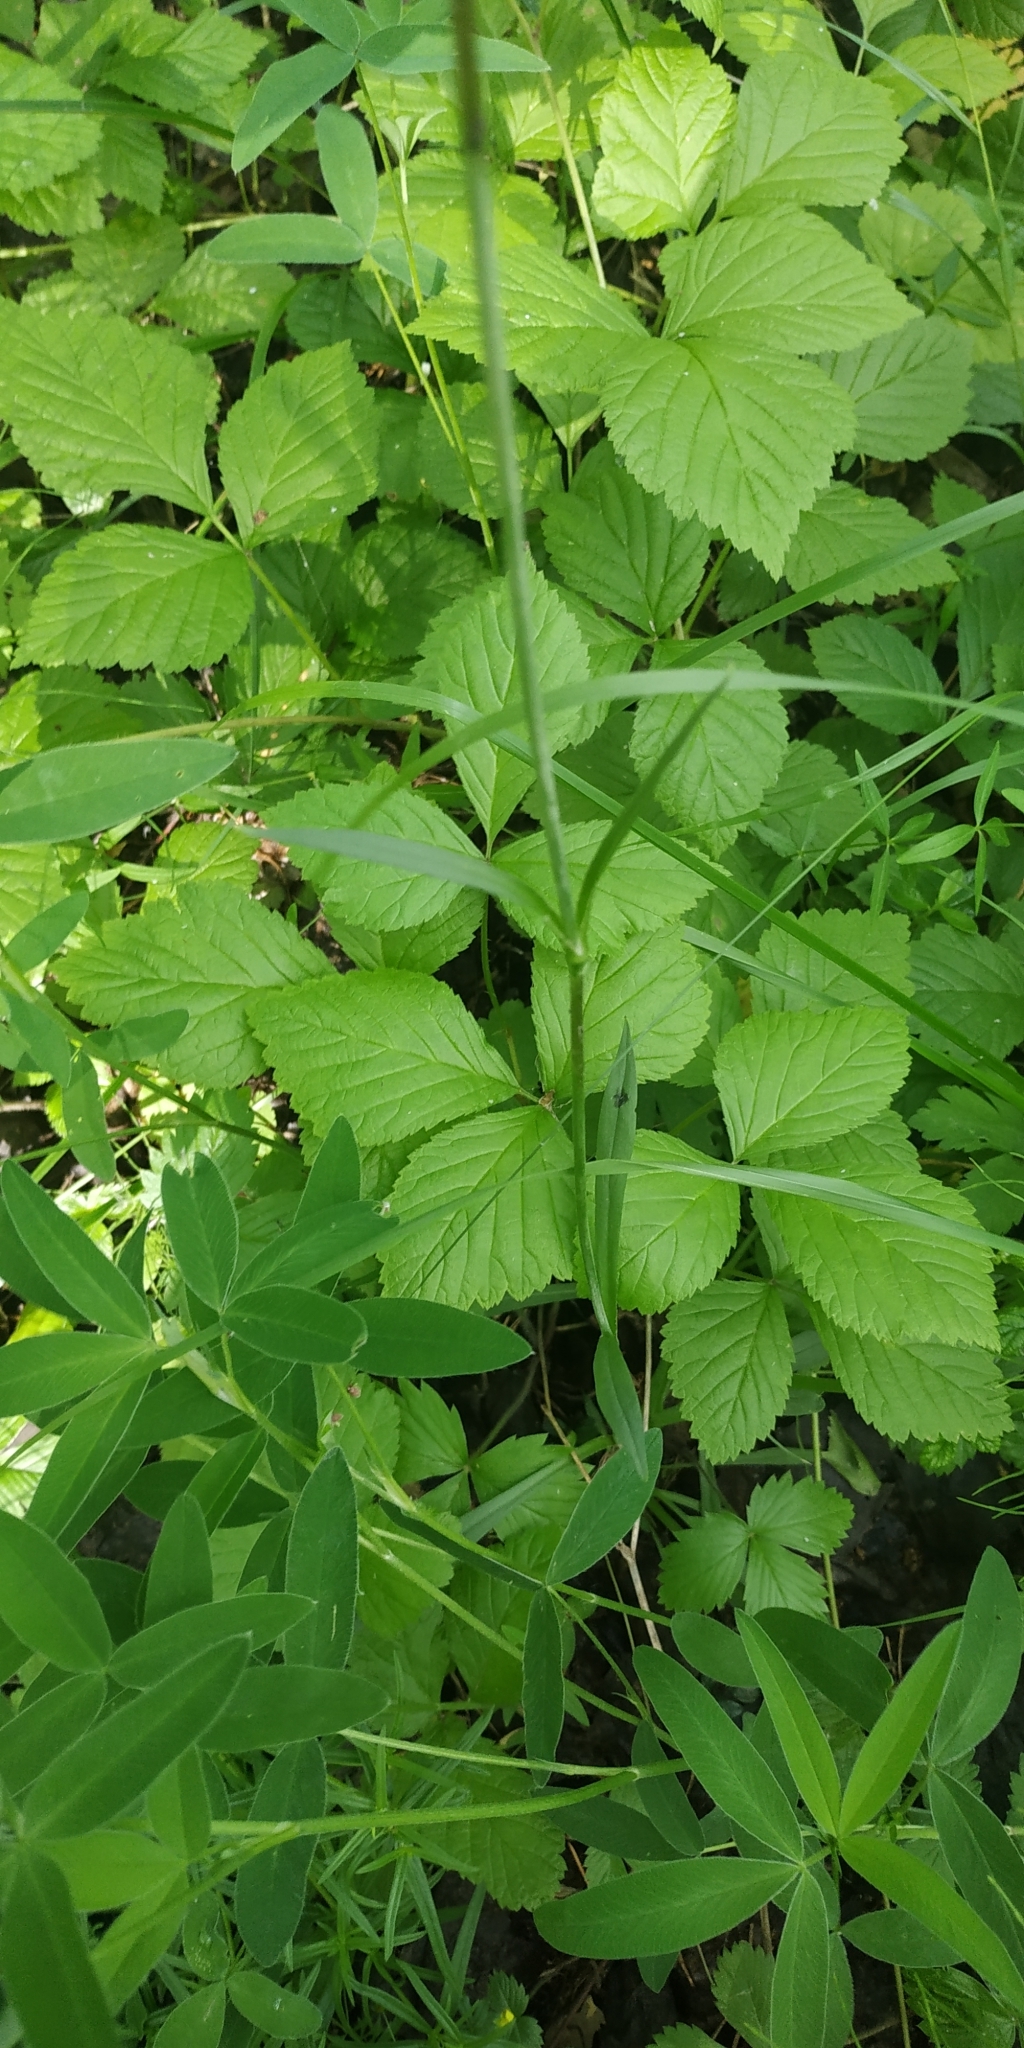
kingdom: Plantae
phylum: Tracheophyta
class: Magnoliopsida
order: Caryophyllales
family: Caryophyllaceae
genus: Viscaria
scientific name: Viscaria vulgaris
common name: Clammy campion
